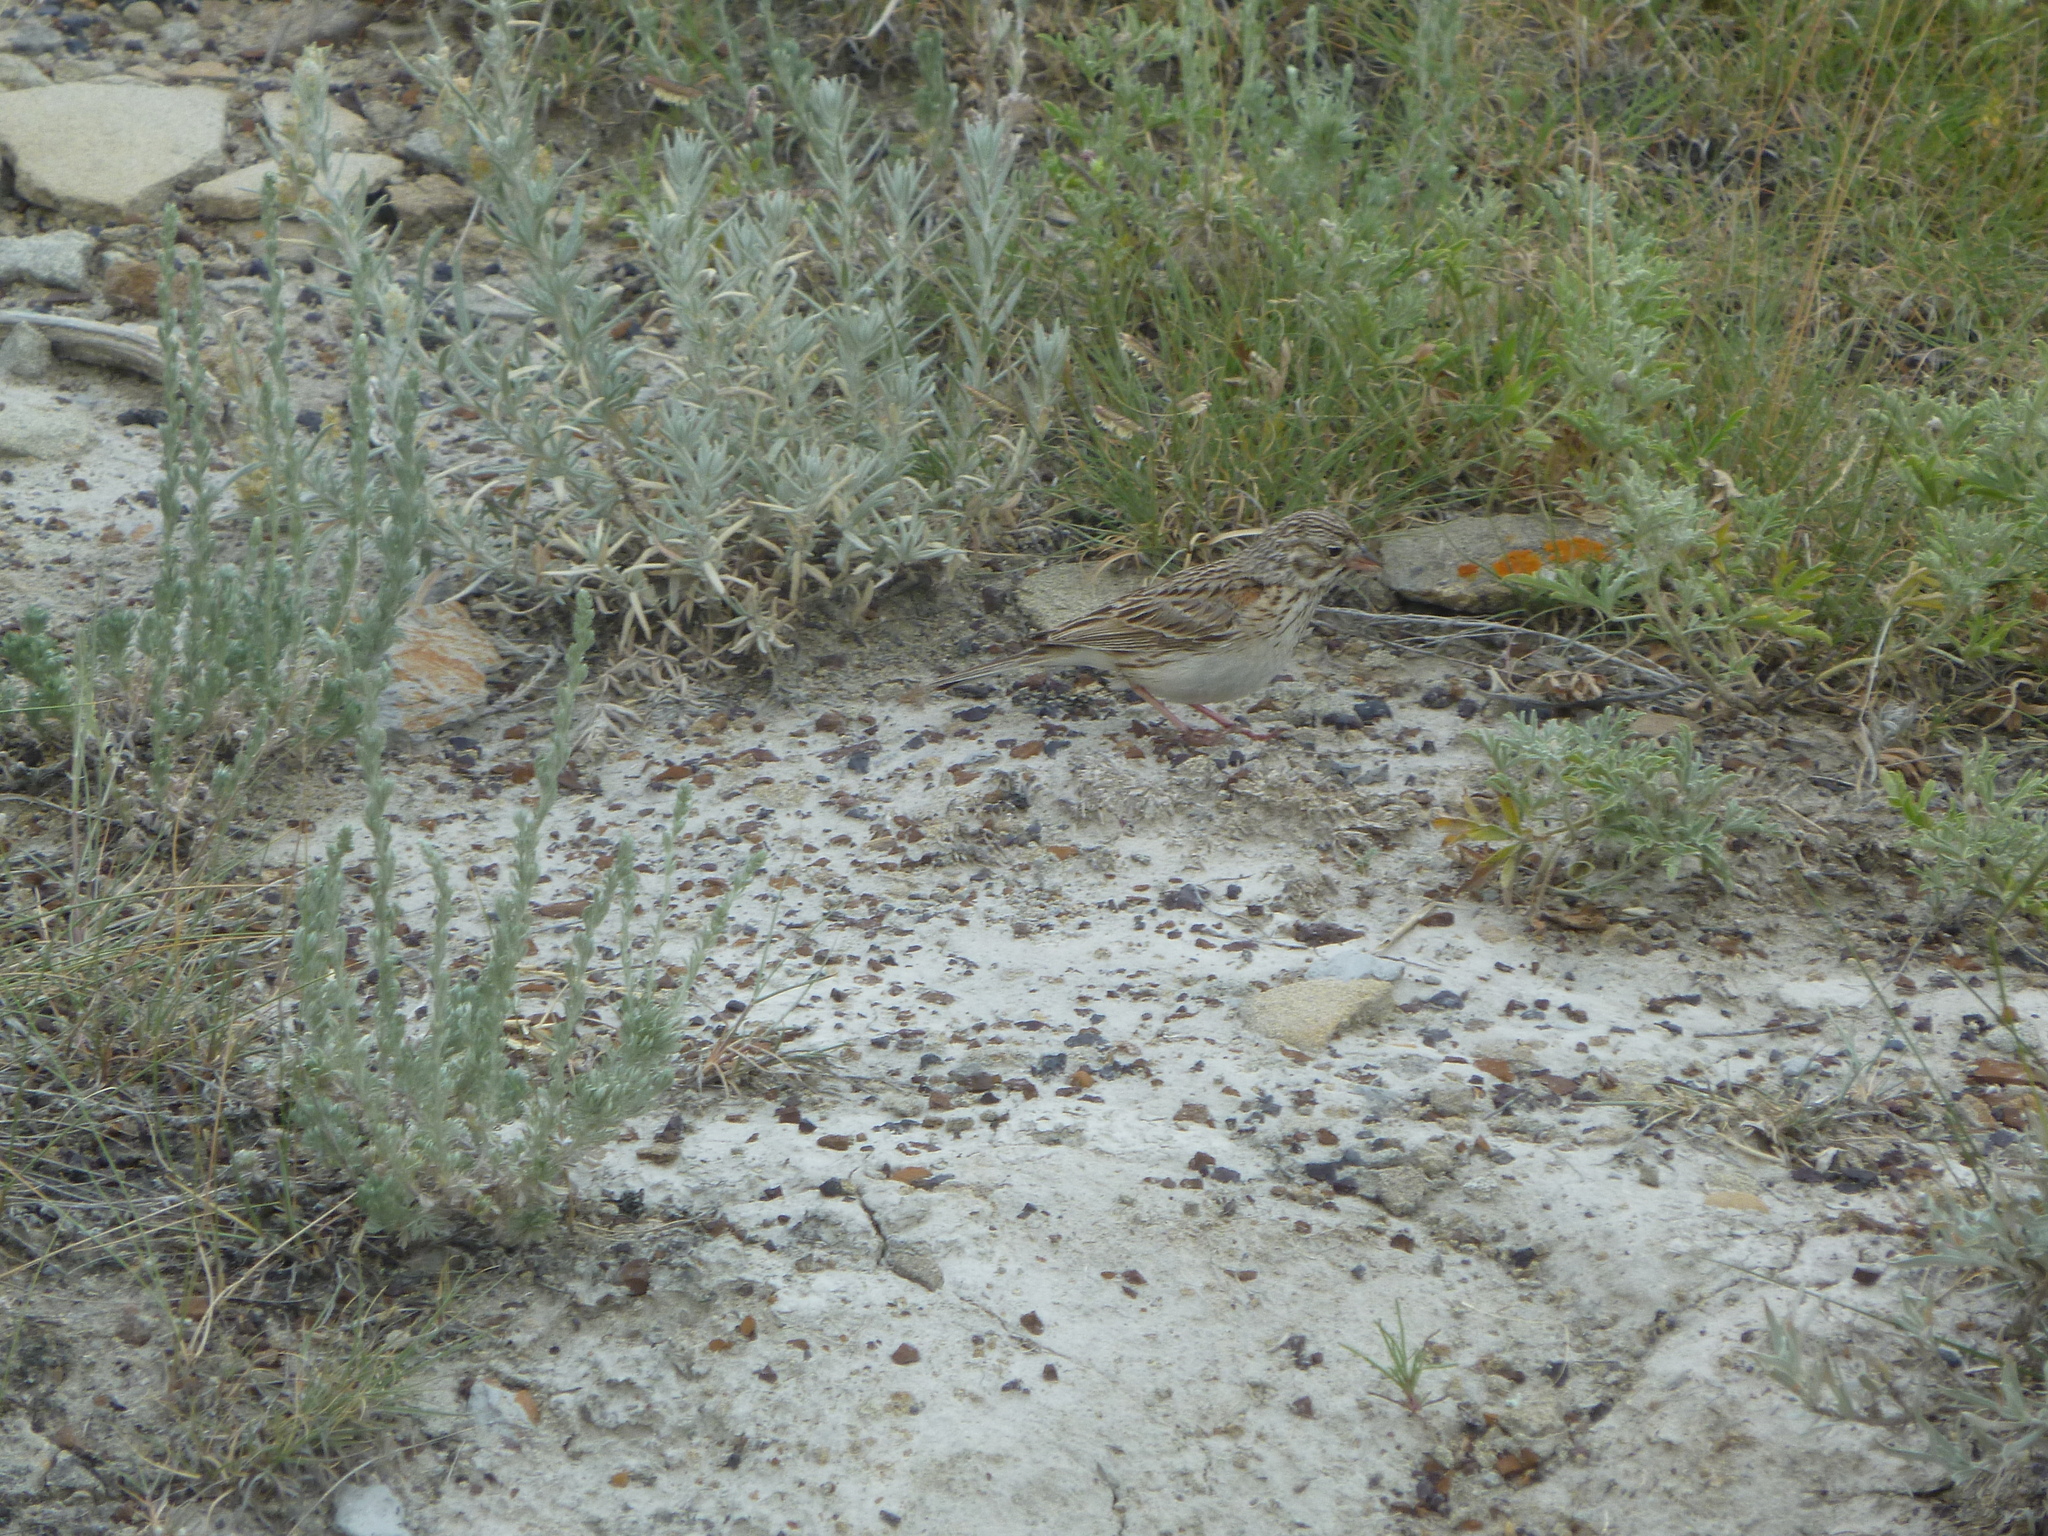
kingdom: Animalia
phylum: Chordata
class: Aves
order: Passeriformes
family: Passerellidae
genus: Pooecetes
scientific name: Pooecetes gramineus
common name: Vesper sparrow
